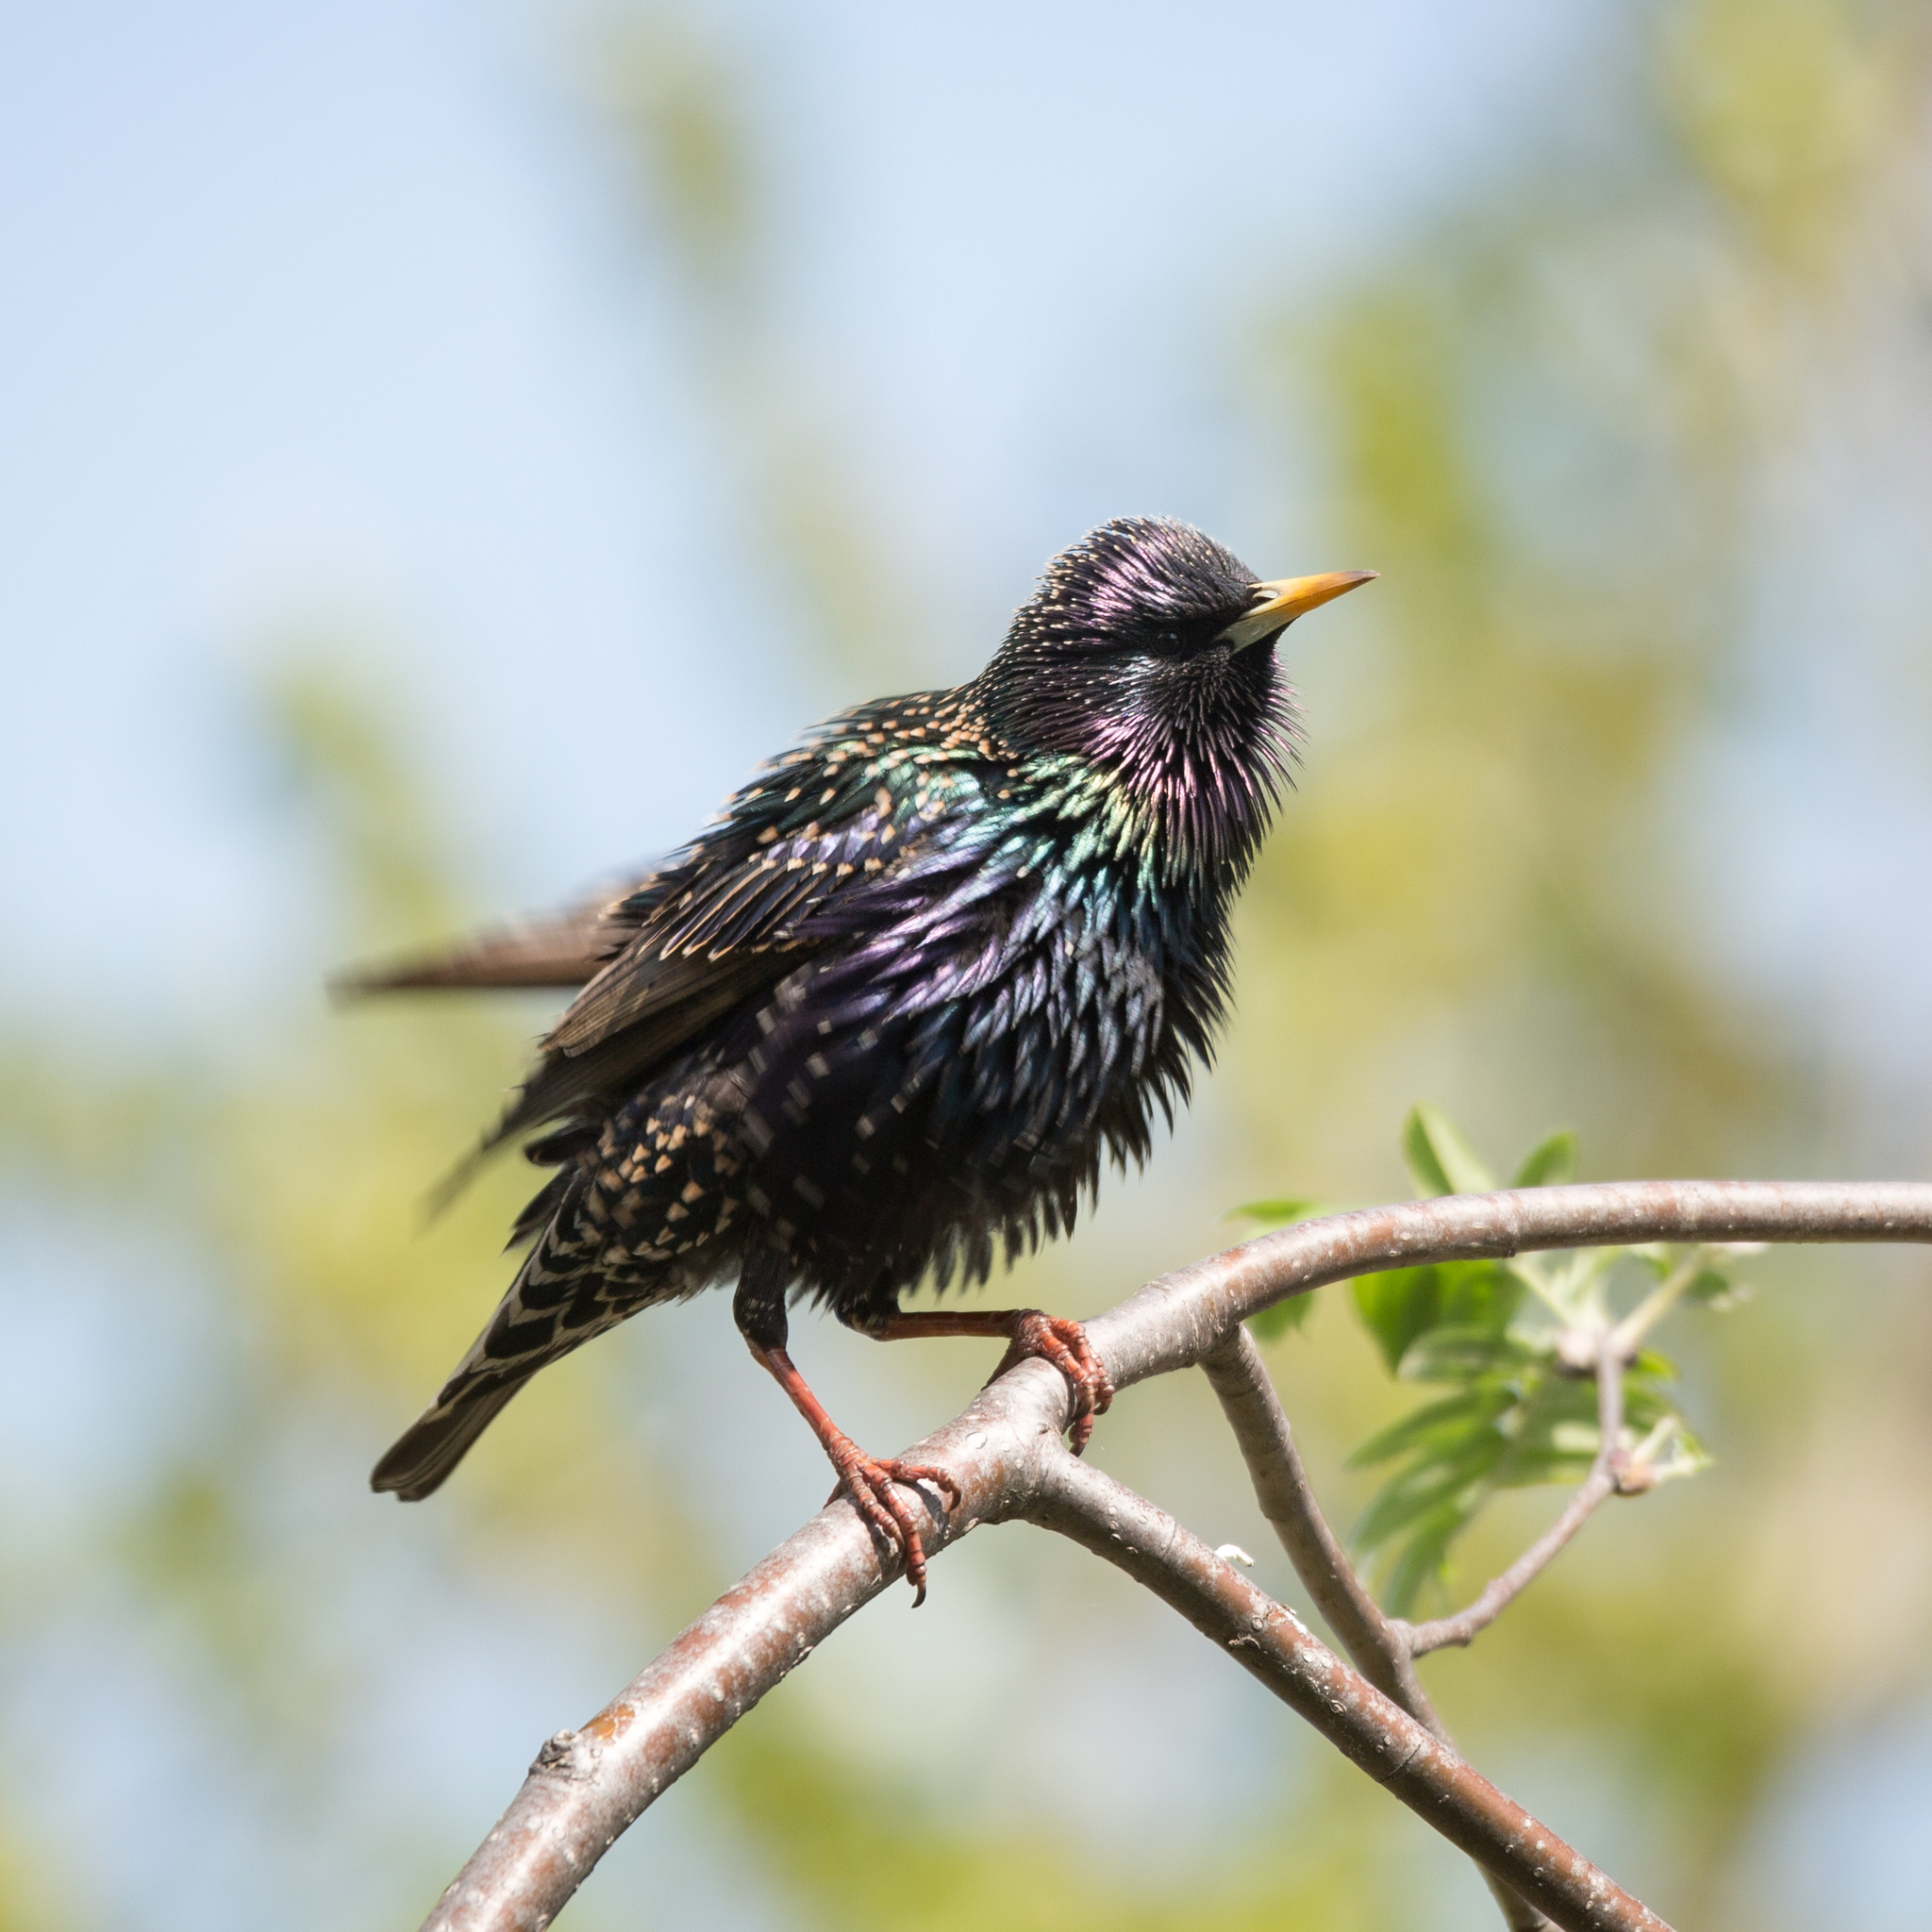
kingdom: Animalia
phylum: Chordata
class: Aves
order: Passeriformes
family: Sturnidae
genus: Sturnus
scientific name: Sturnus vulgaris
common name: Common starling
